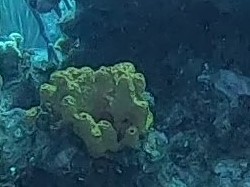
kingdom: Animalia
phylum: Porifera
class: Demospongiae
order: Verongiida
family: Aplysinidae
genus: Aiolochroia
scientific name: Aiolochroia crassa
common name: Branching tube sponge
